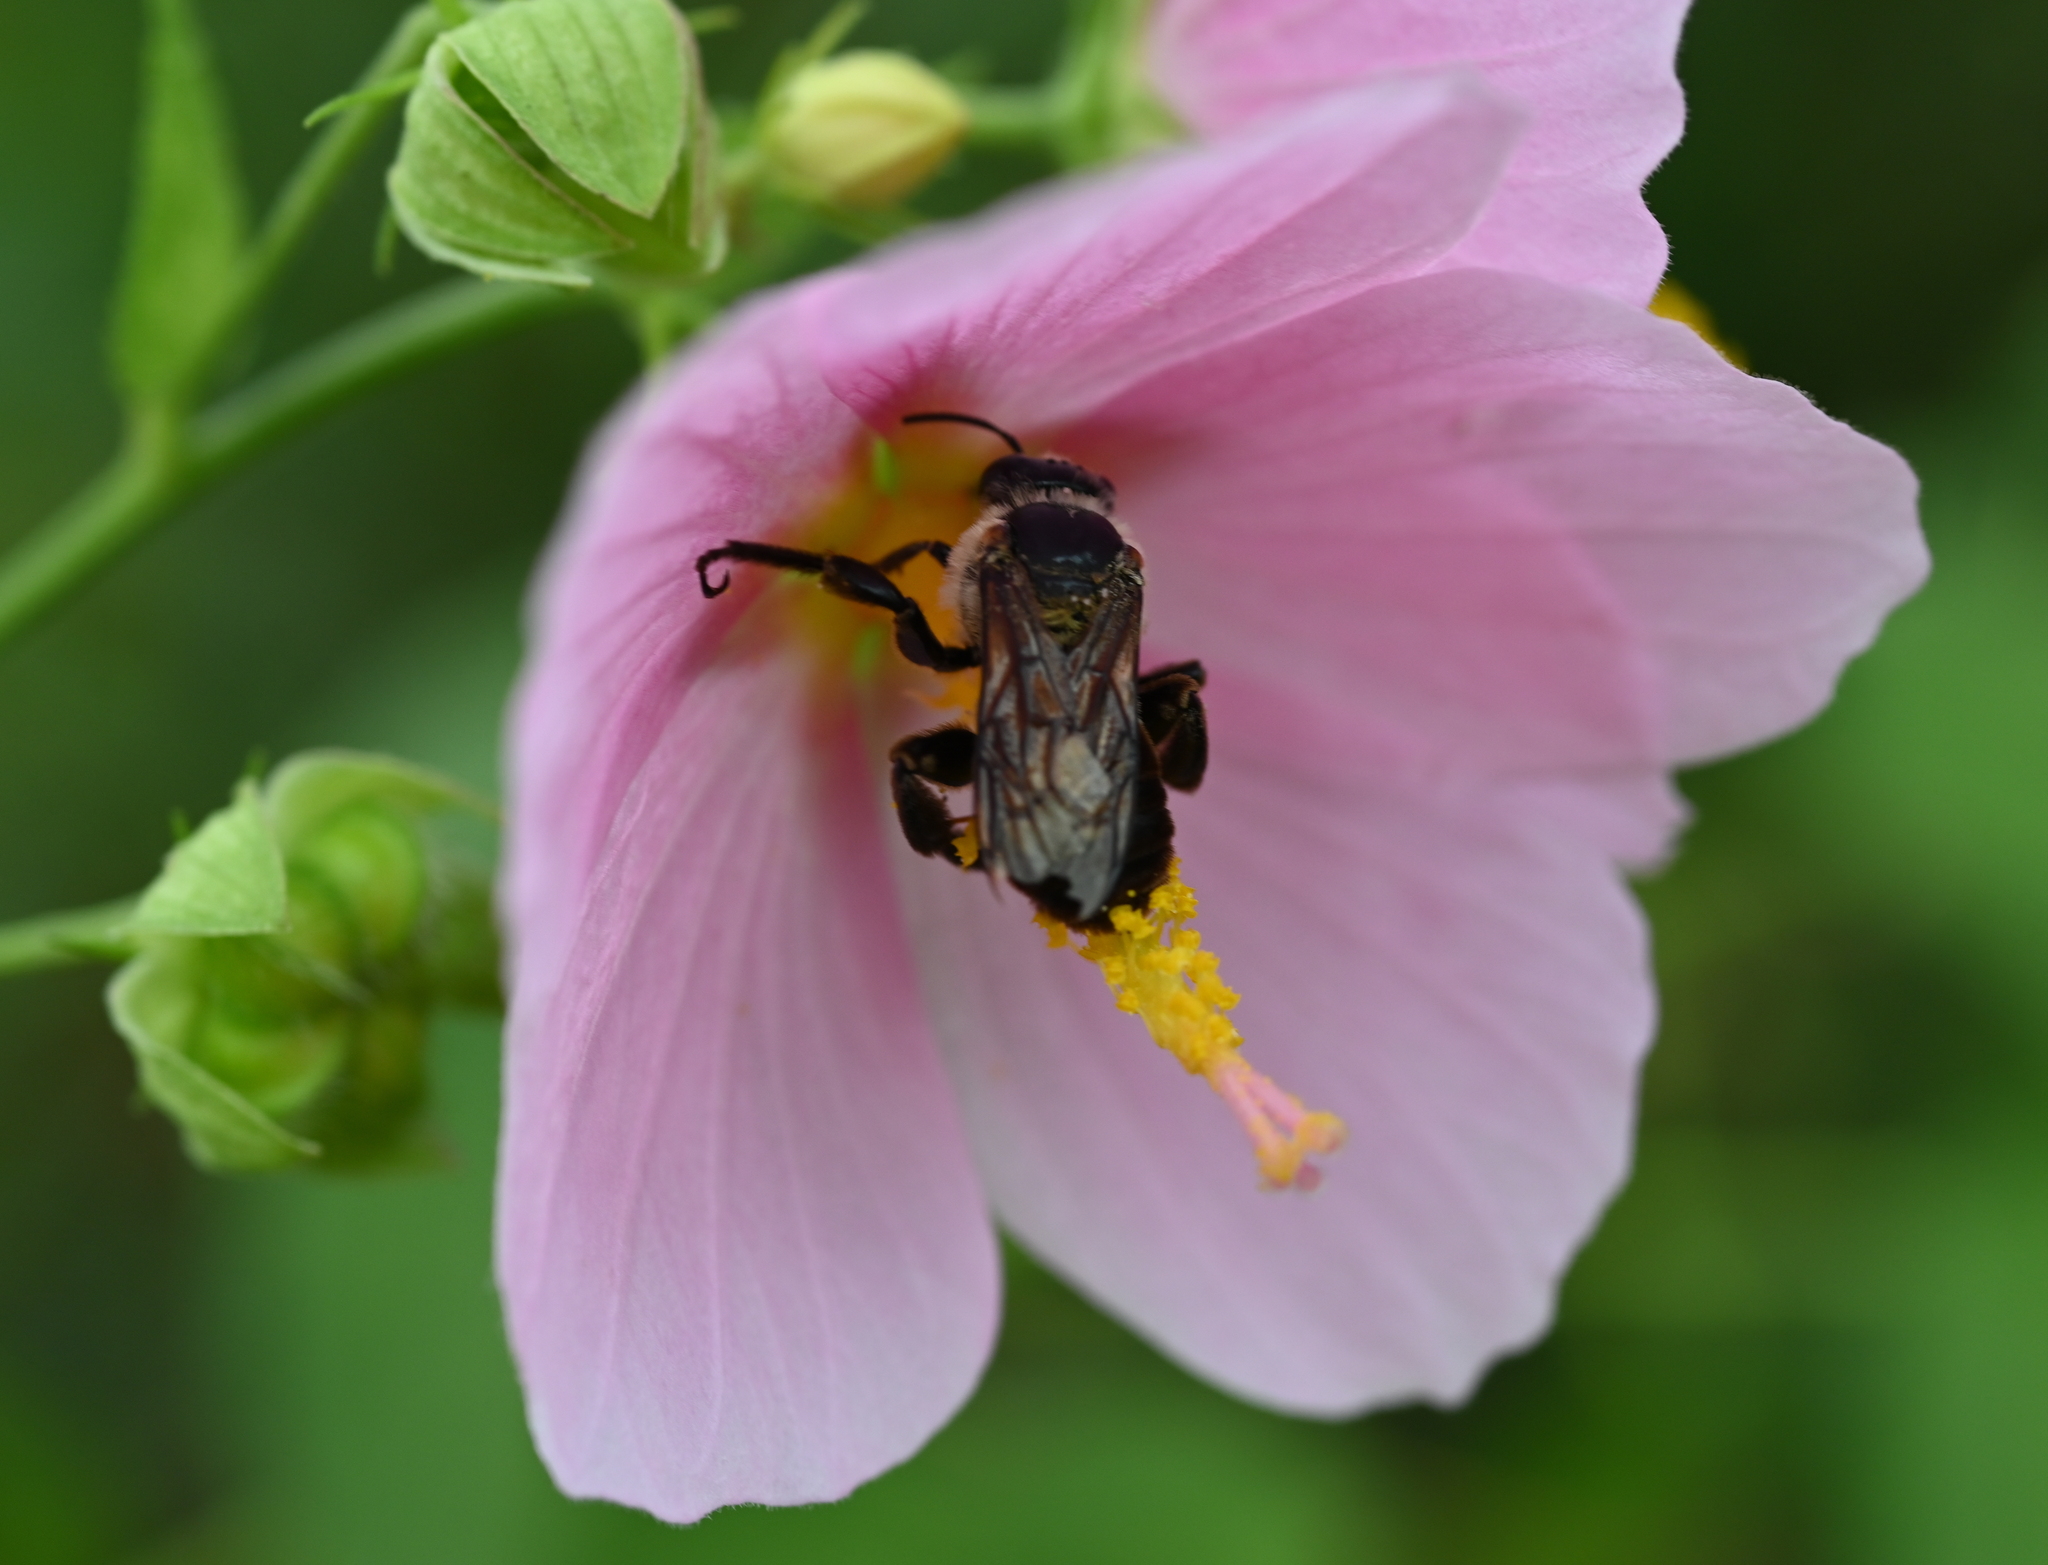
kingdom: Animalia
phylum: Arthropoda
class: Insecta
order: Hymenoptera
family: Apidae
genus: Ptilothrix
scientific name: Ptilothrix bombiformis
